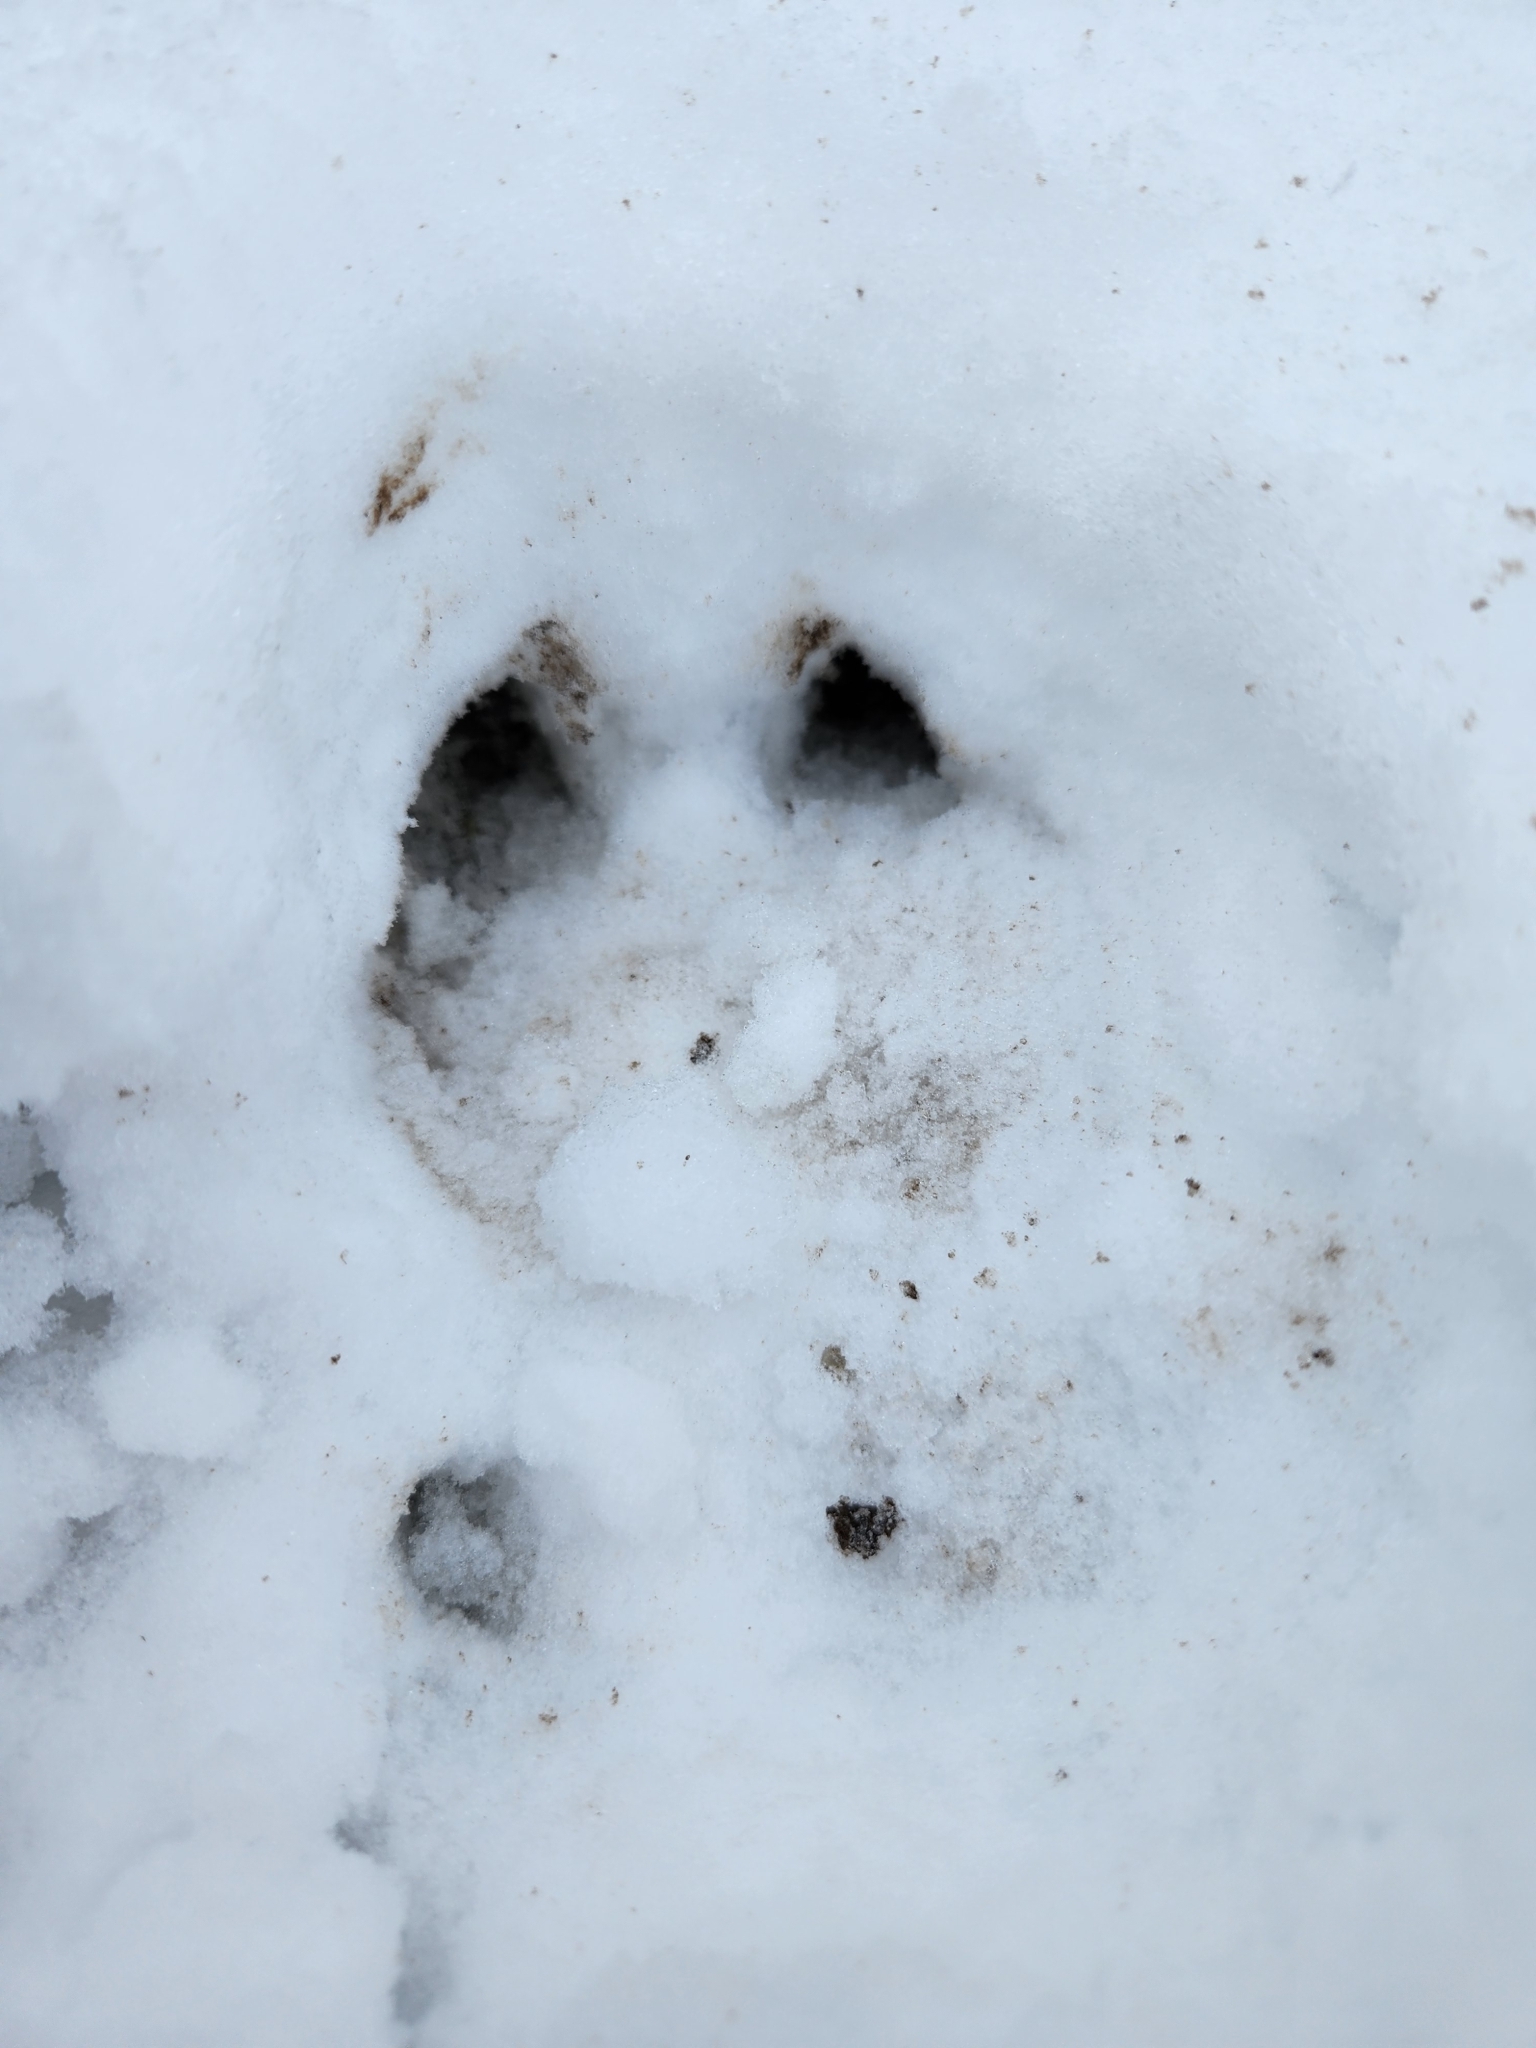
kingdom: Animalia
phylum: Chordata
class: Mammalia
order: Artiodactyla
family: Cervidae
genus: Odocoileus
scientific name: Odocoileus virginianus
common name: White-tailed deer
